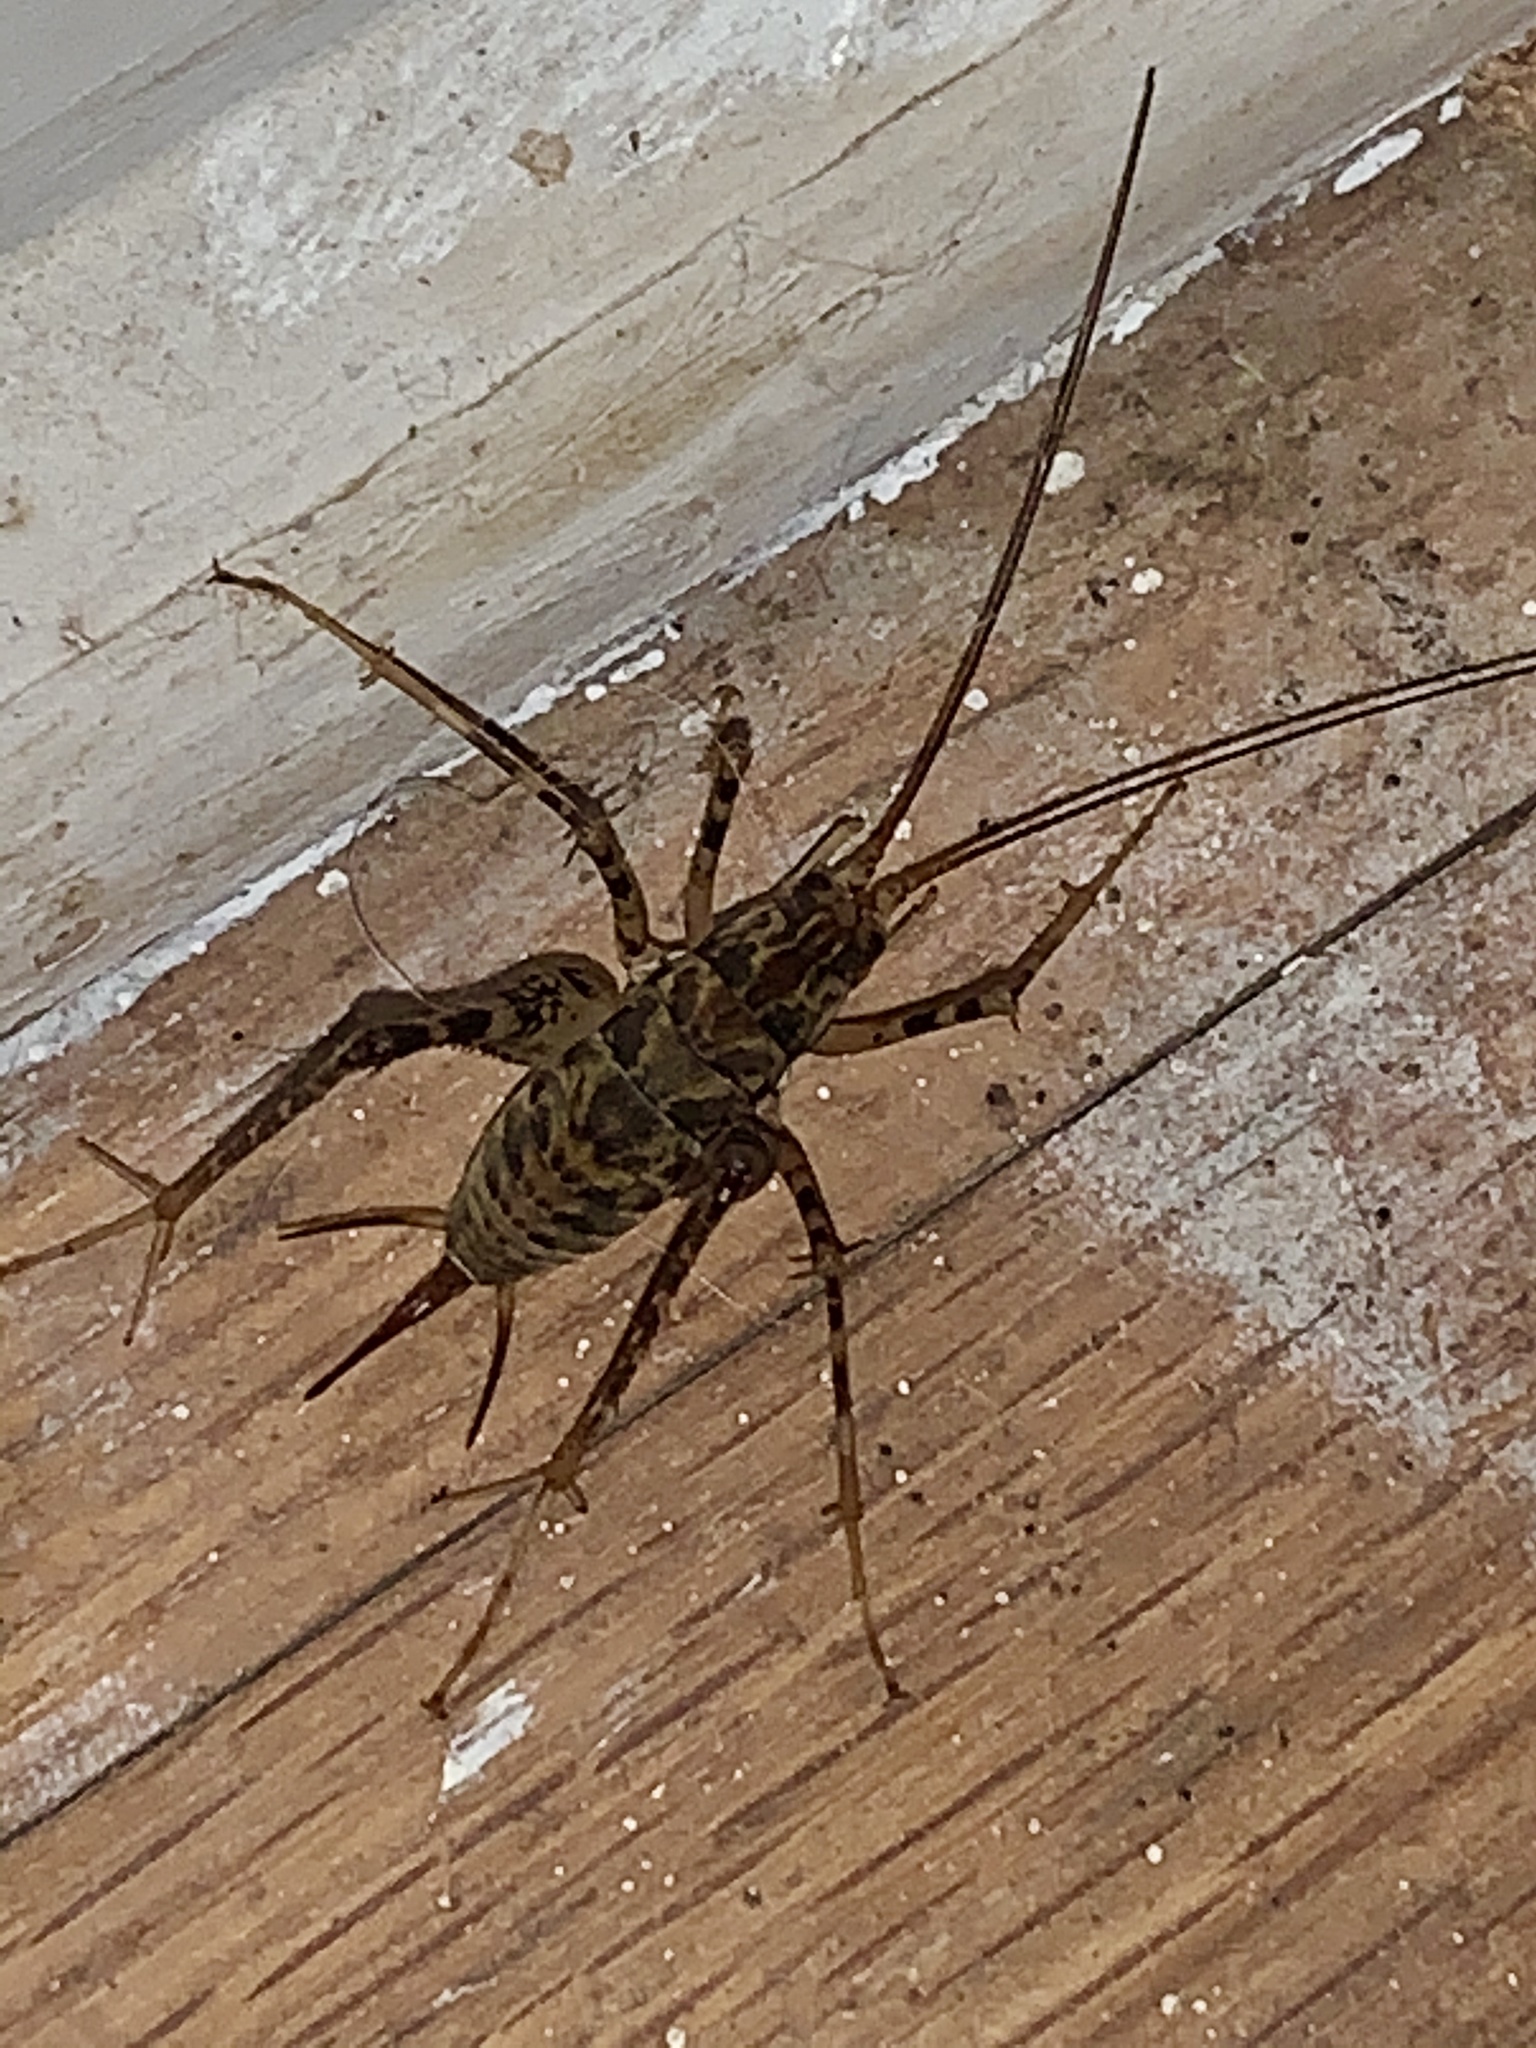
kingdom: Animalia
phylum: Arthropoda
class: Insecta
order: Orthoptera
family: Rhaphidophoridae
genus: Diestrammena
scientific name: Diestrammena japanica
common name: Japanese camel cricket
